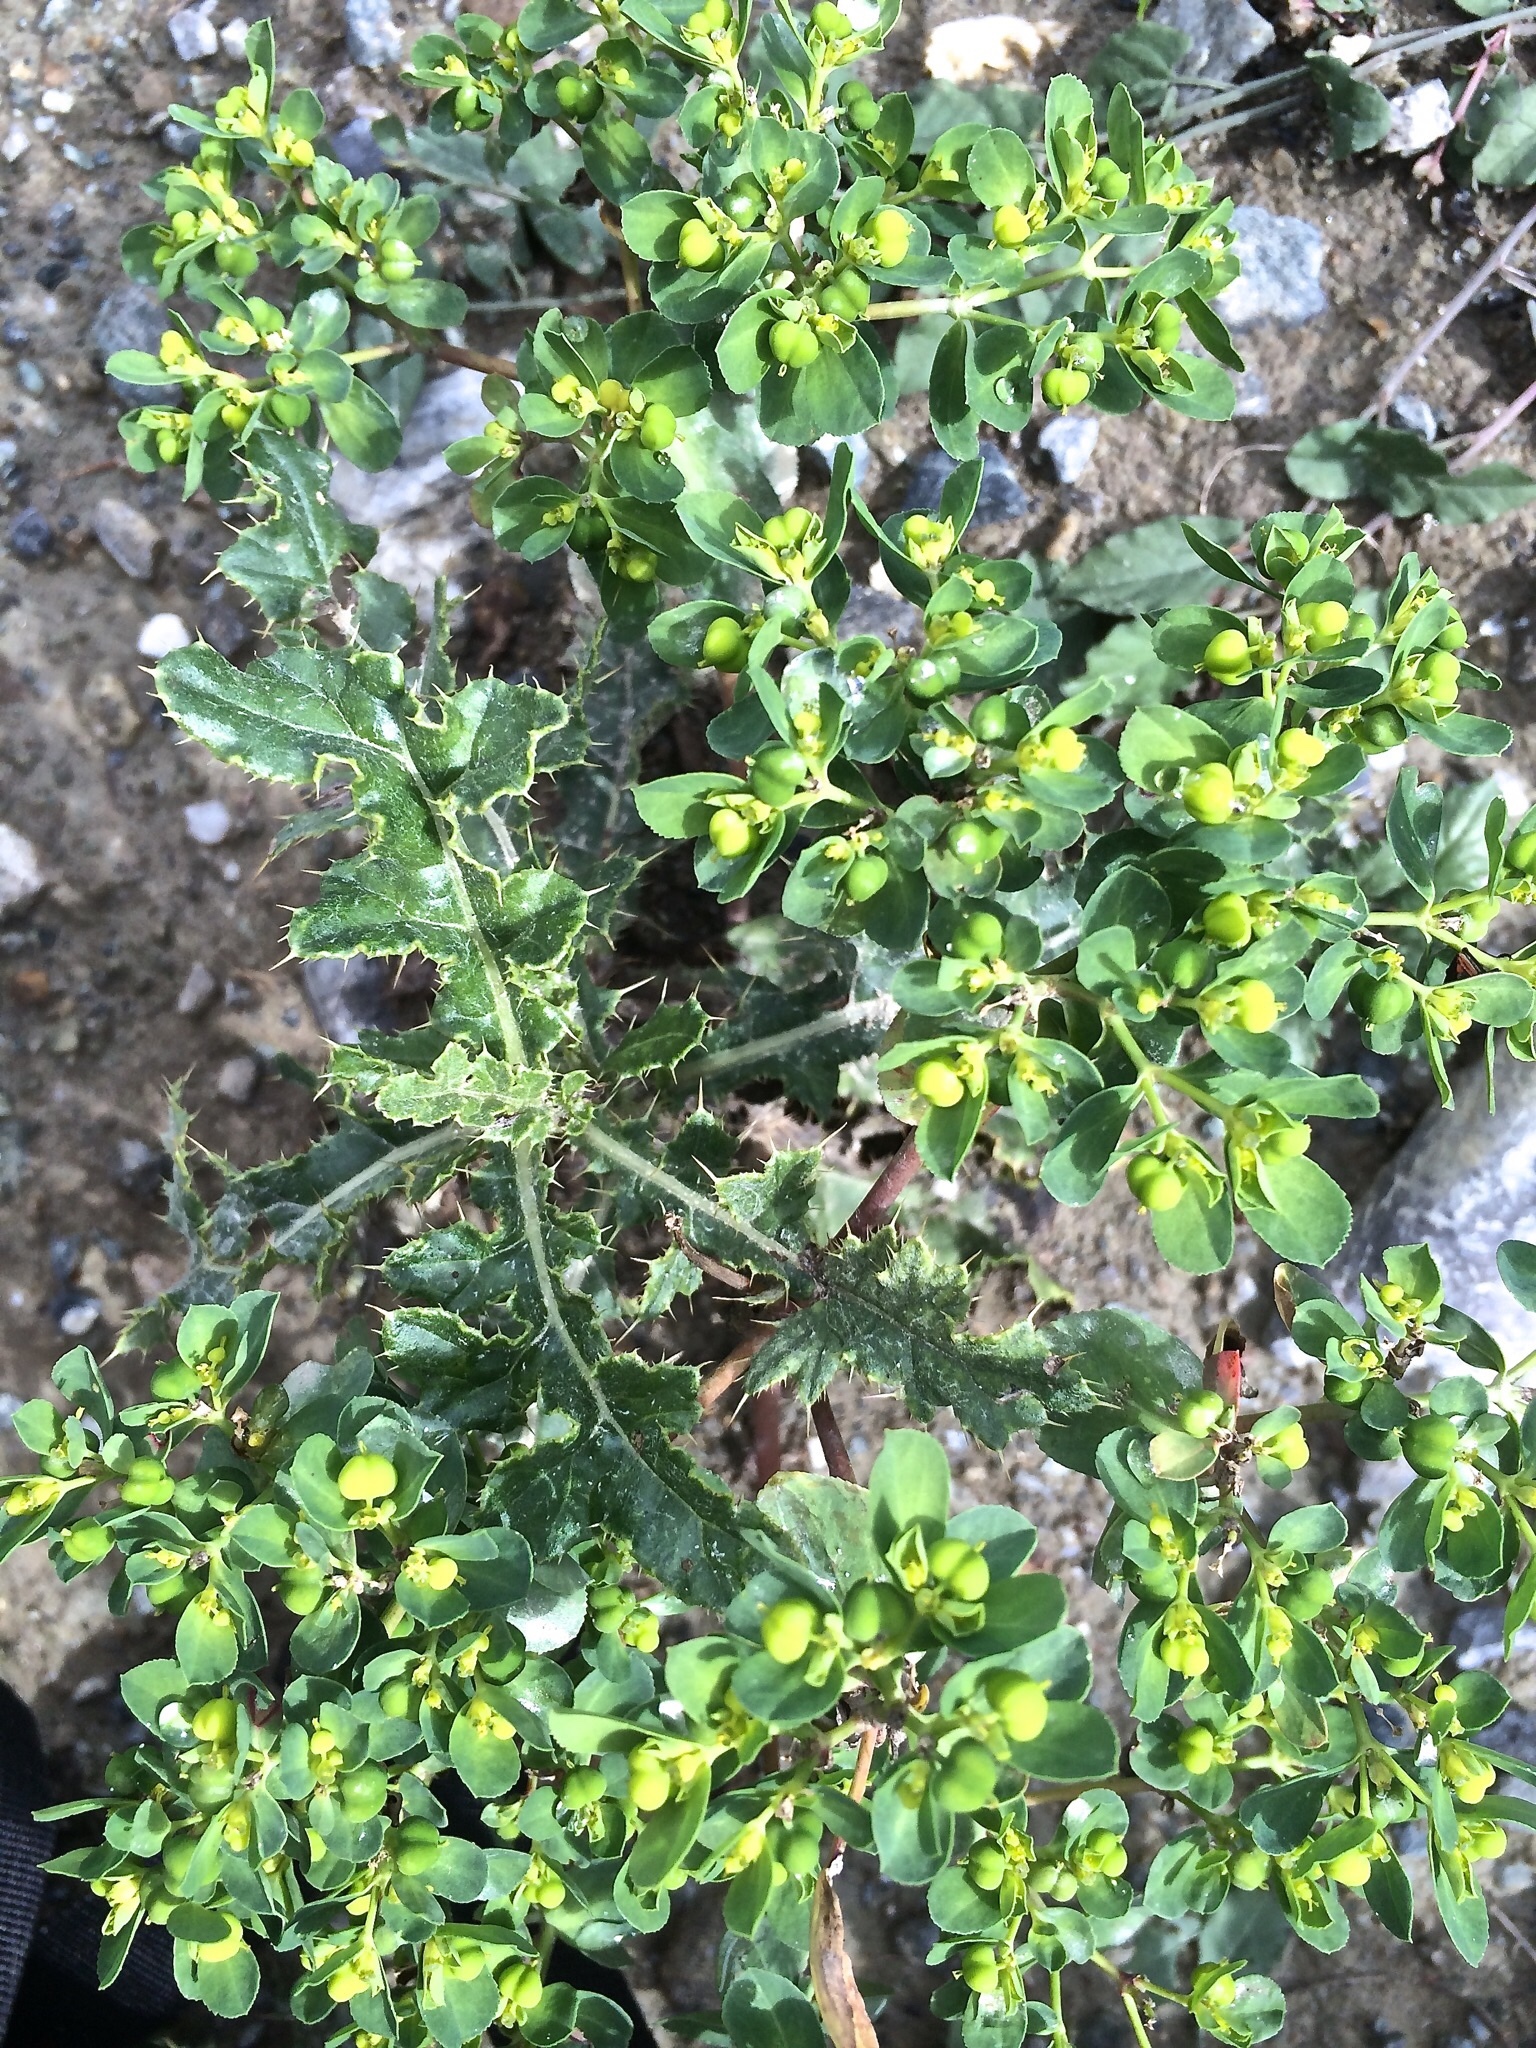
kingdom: Plantae
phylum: Tracheophyta
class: Magnoliopsida
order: Malpighiales
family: Euphorbiaceae
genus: Euphorbia
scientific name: Euphorbia helioscopia
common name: Sun spurge
